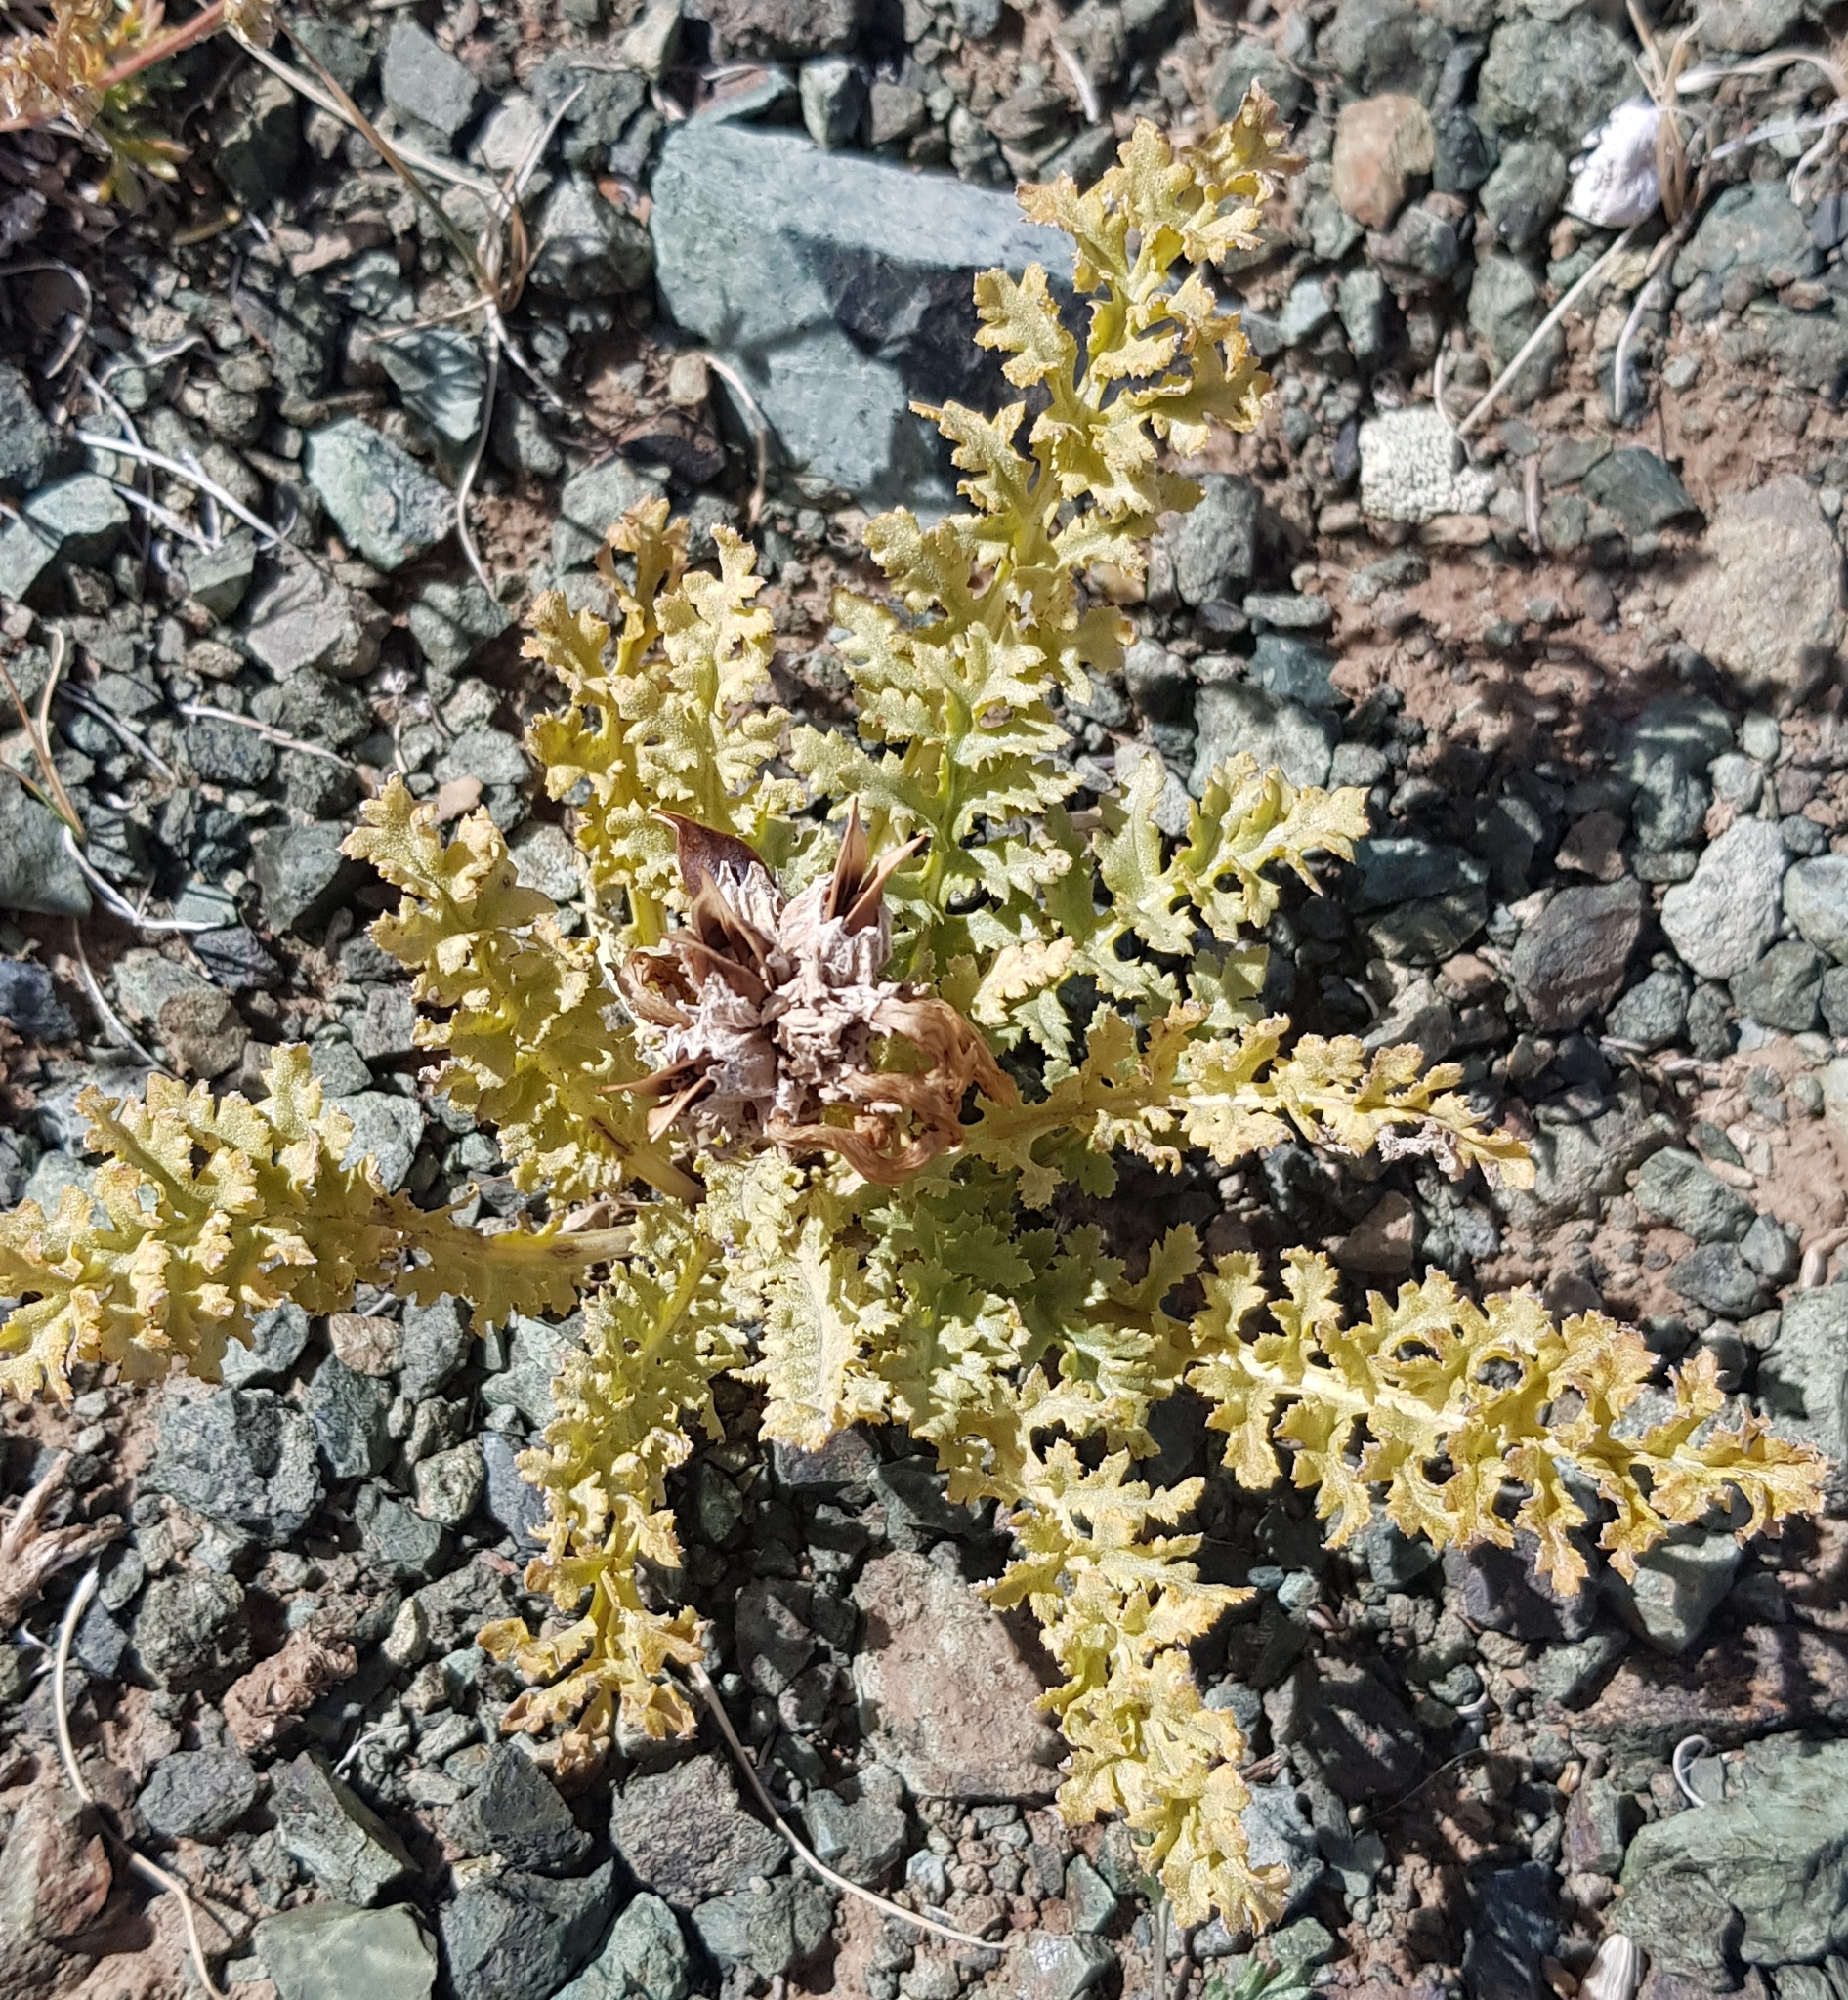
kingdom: Plantae
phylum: Tracheophyta
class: Magnoliopsida
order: Lamiales
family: Orobanchaceae
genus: Pedicularis
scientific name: Pedicularis anthemifolia
